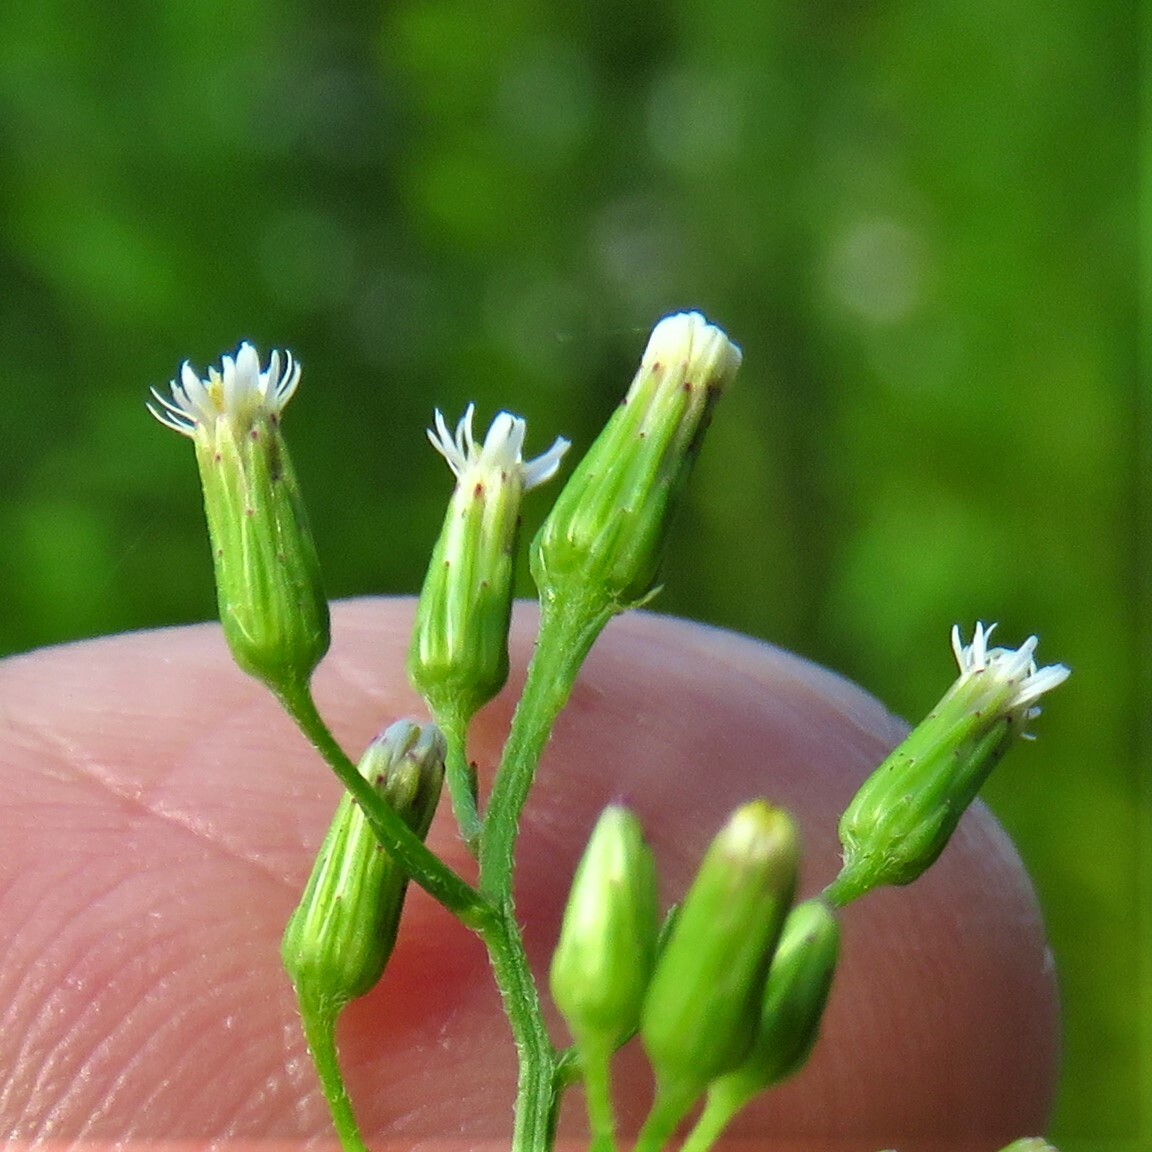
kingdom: Plantae
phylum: Tracheophyta
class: Magnoliopsida
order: Asterales
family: Asteraceae
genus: Erigeron
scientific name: Erigeron canadensis
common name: Canadian fleabane
